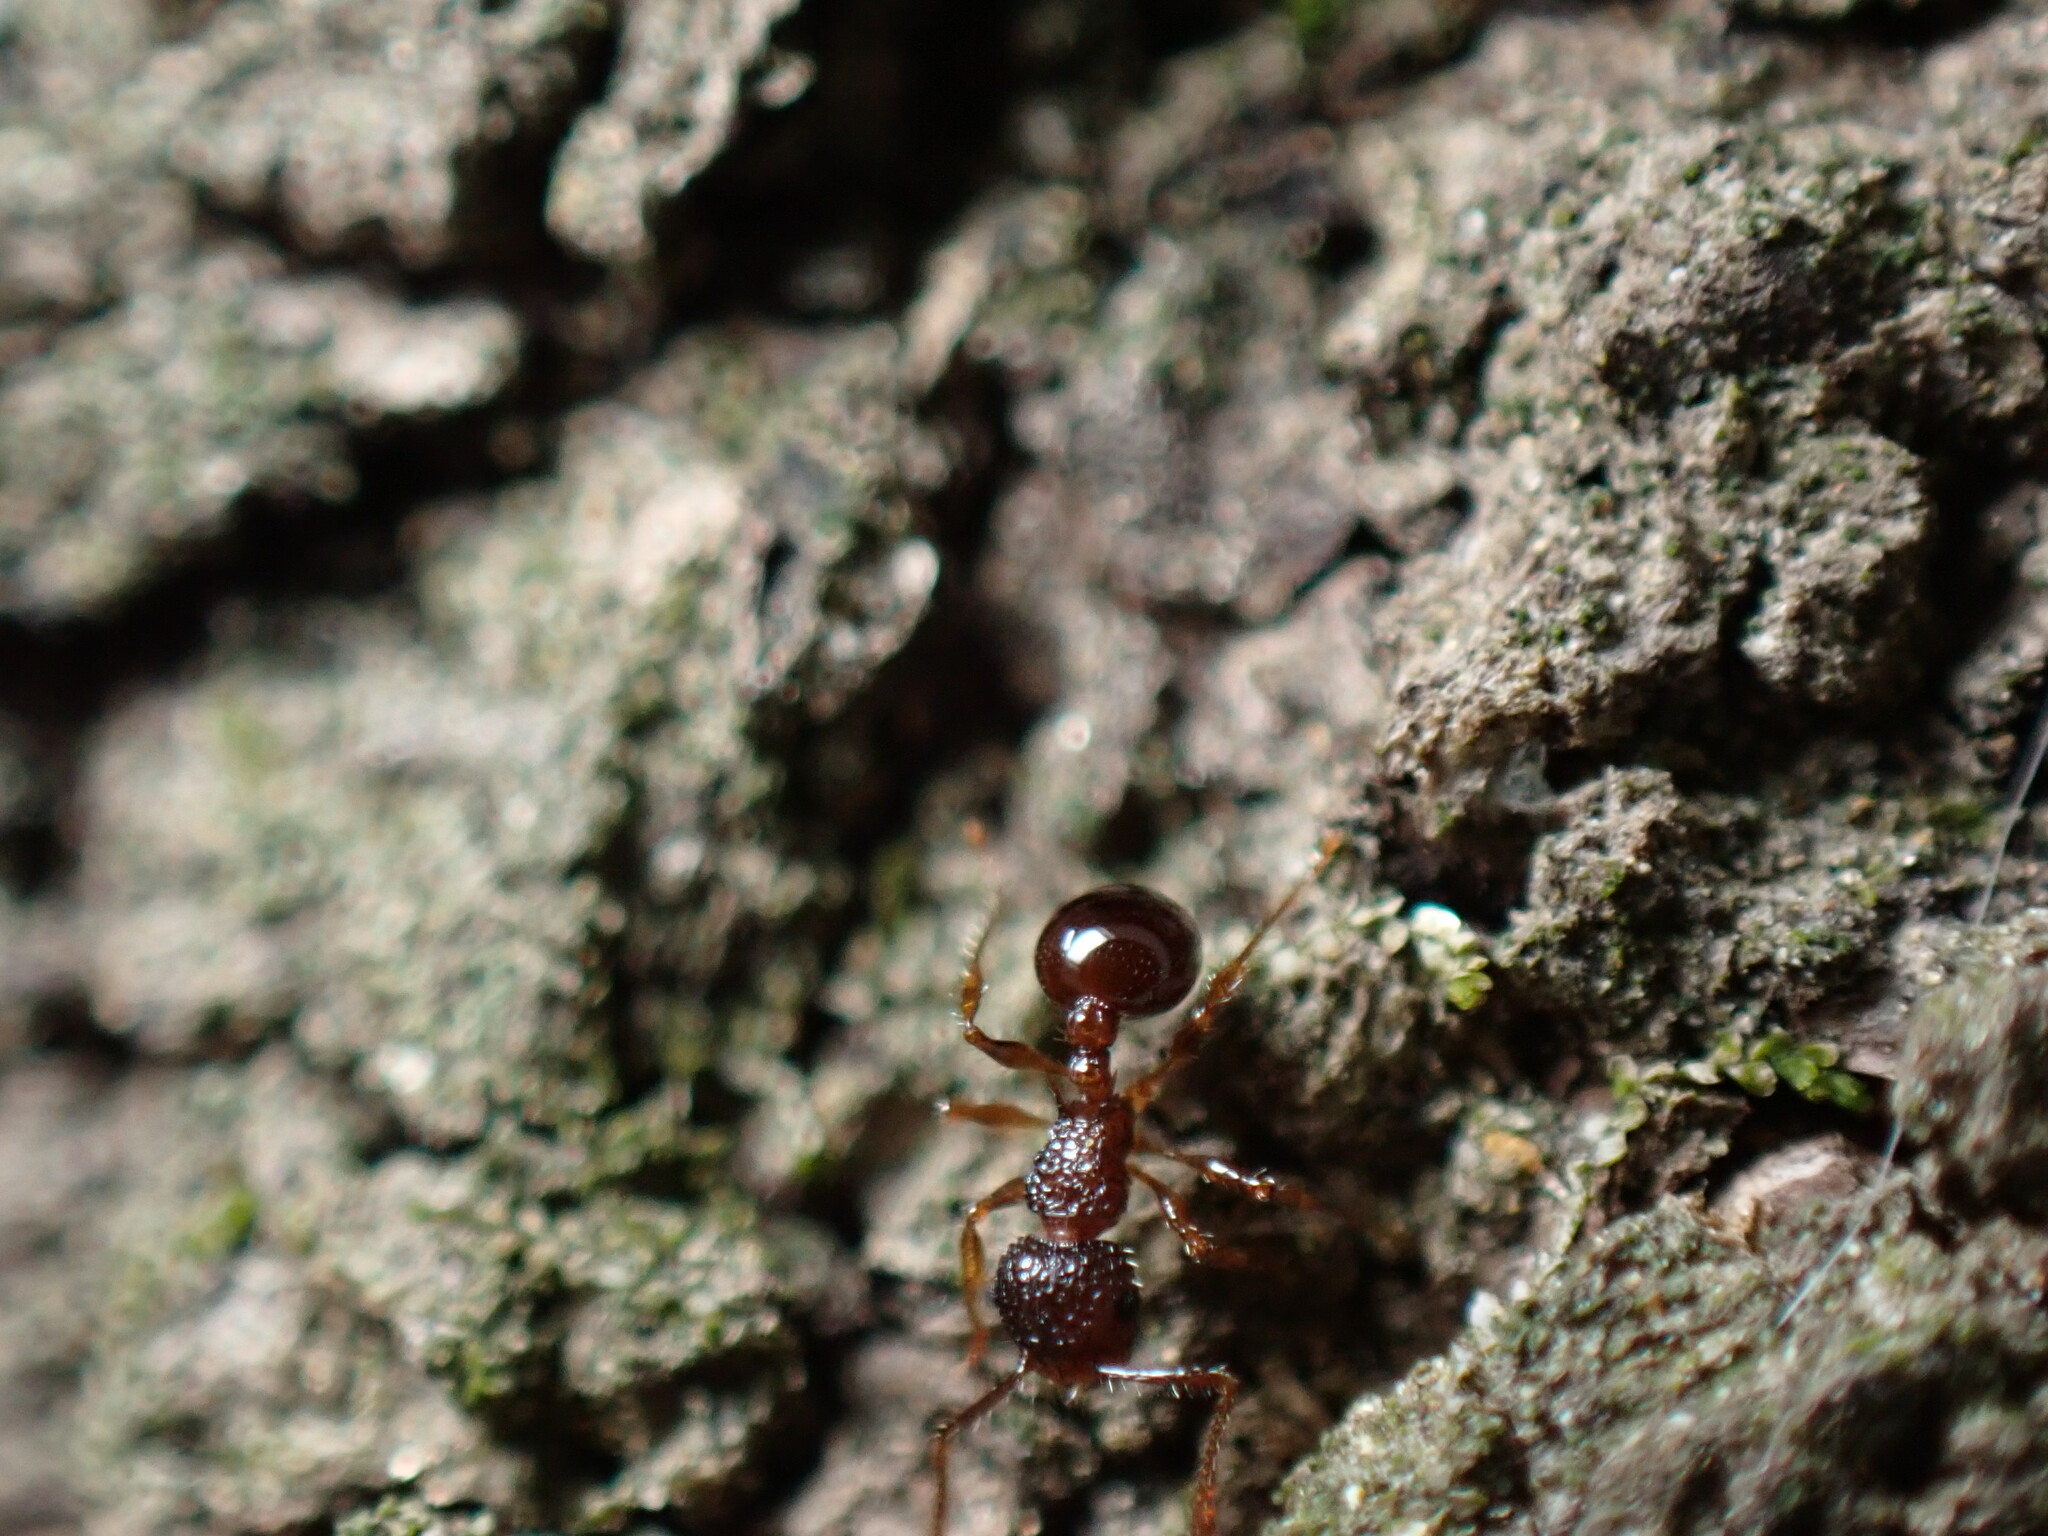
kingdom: Animalia
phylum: Arthropoda
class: Insecta
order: Hymenoptera
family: Formicidae
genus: Pristomyrmex
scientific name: Pristomyrmex punctatus
